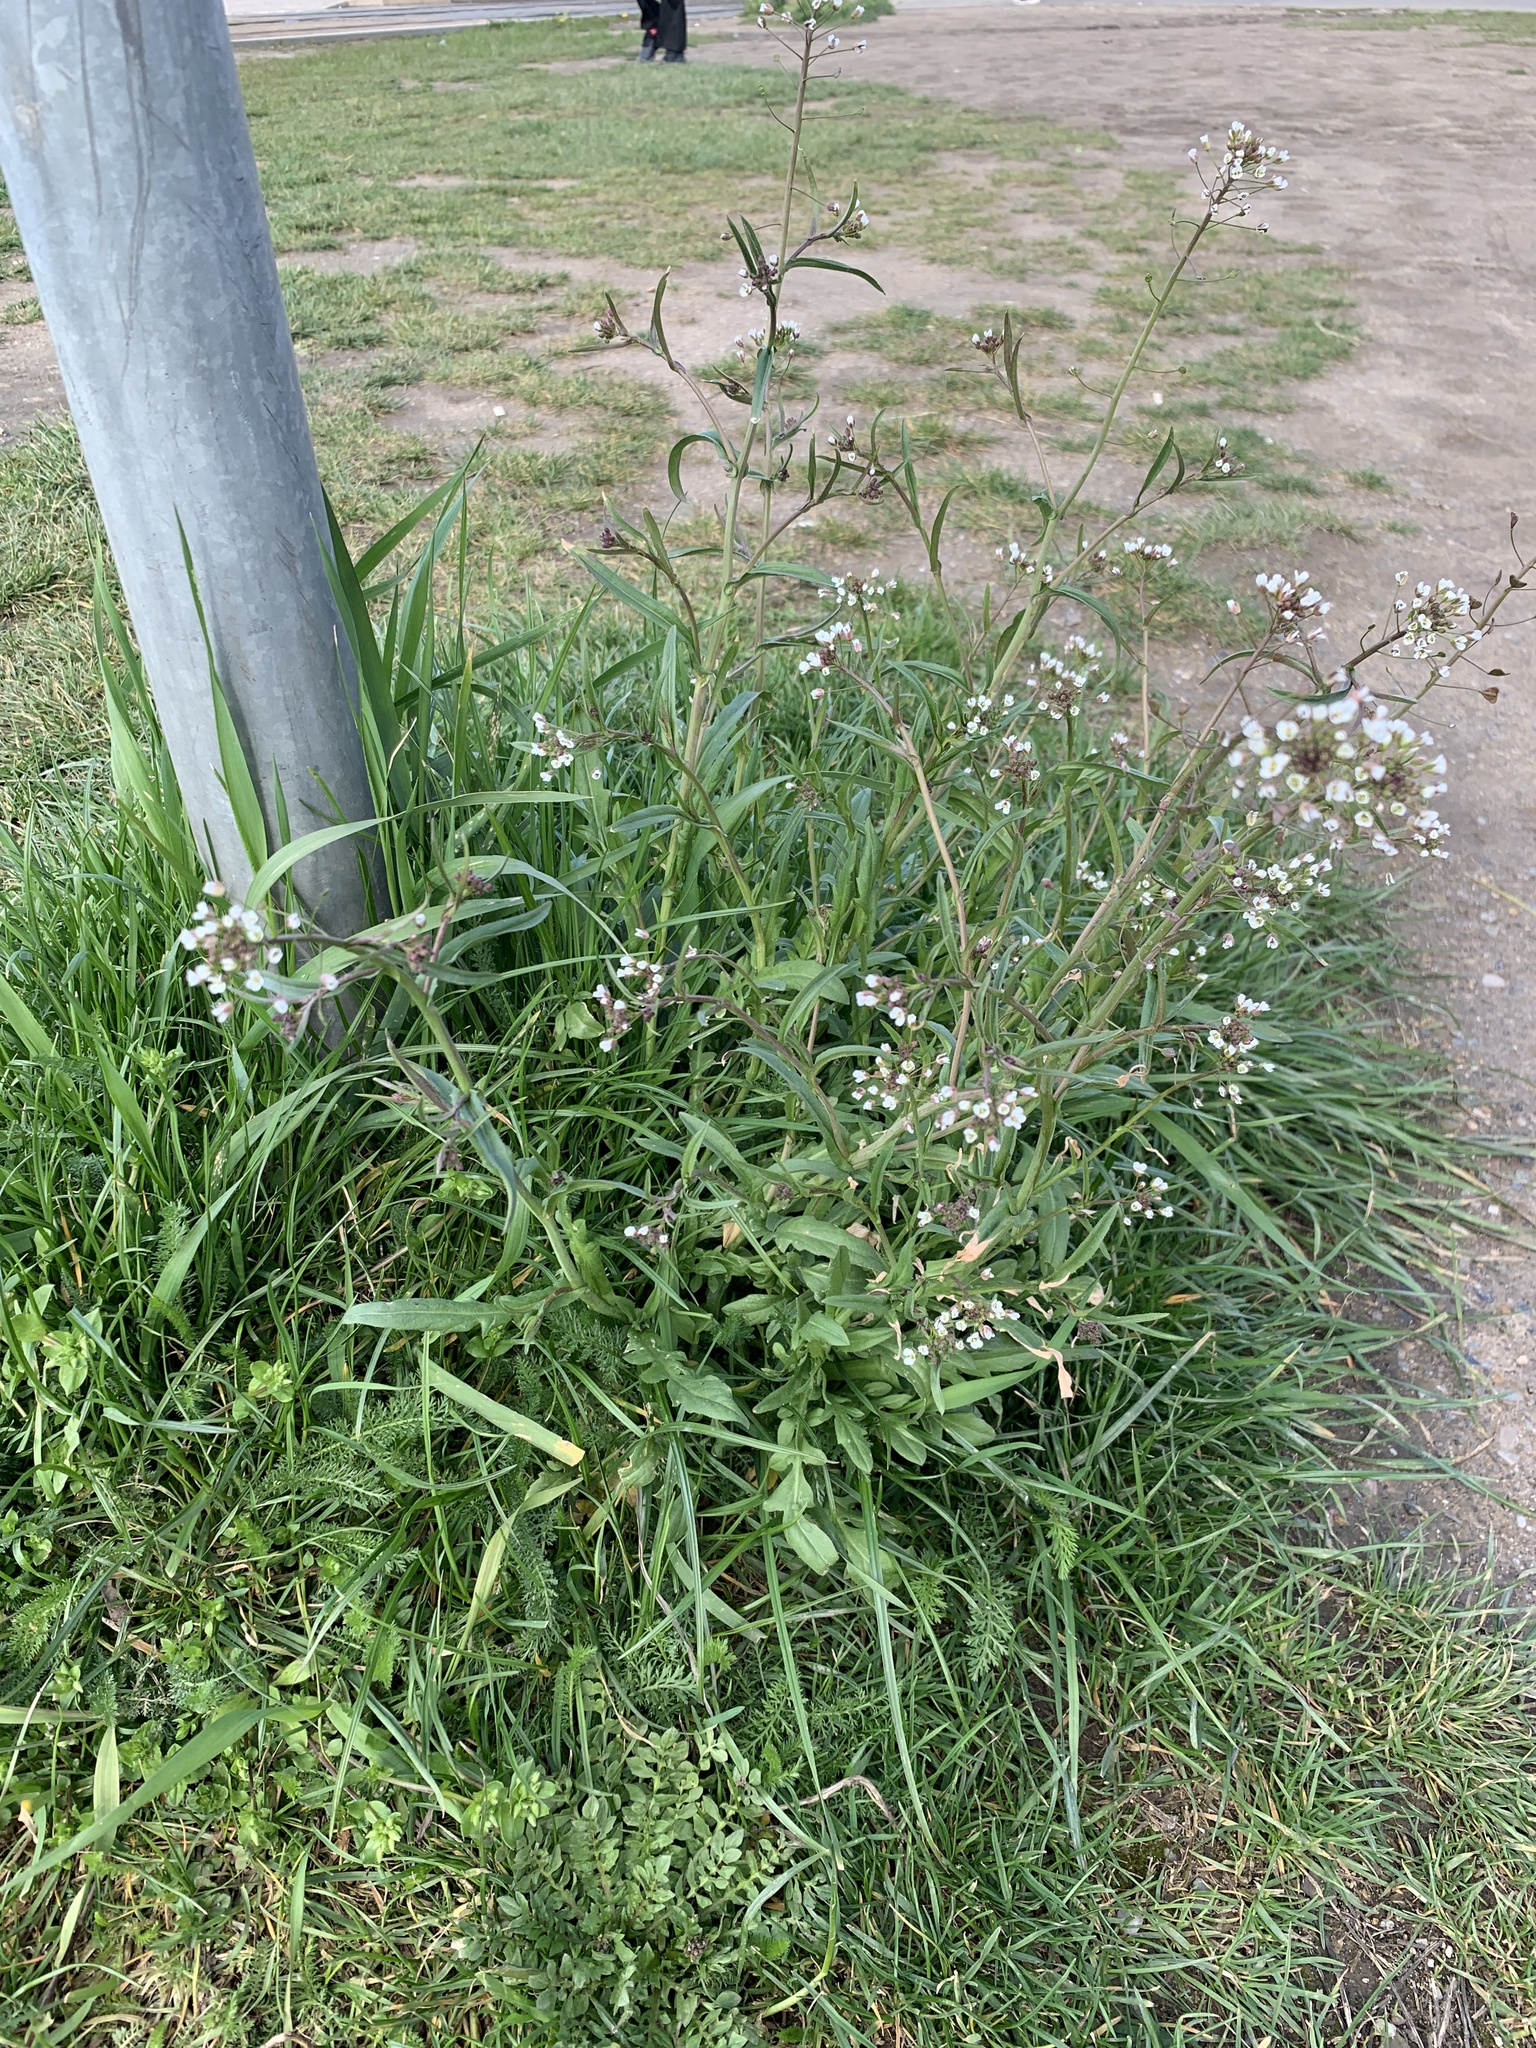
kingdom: Plantae
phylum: Tracheophyta
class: Magnoliopsida
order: Brassicales
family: Brassicaceae
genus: Capsella
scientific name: Capsella bursa-pastoris
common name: Shepherd's purse
